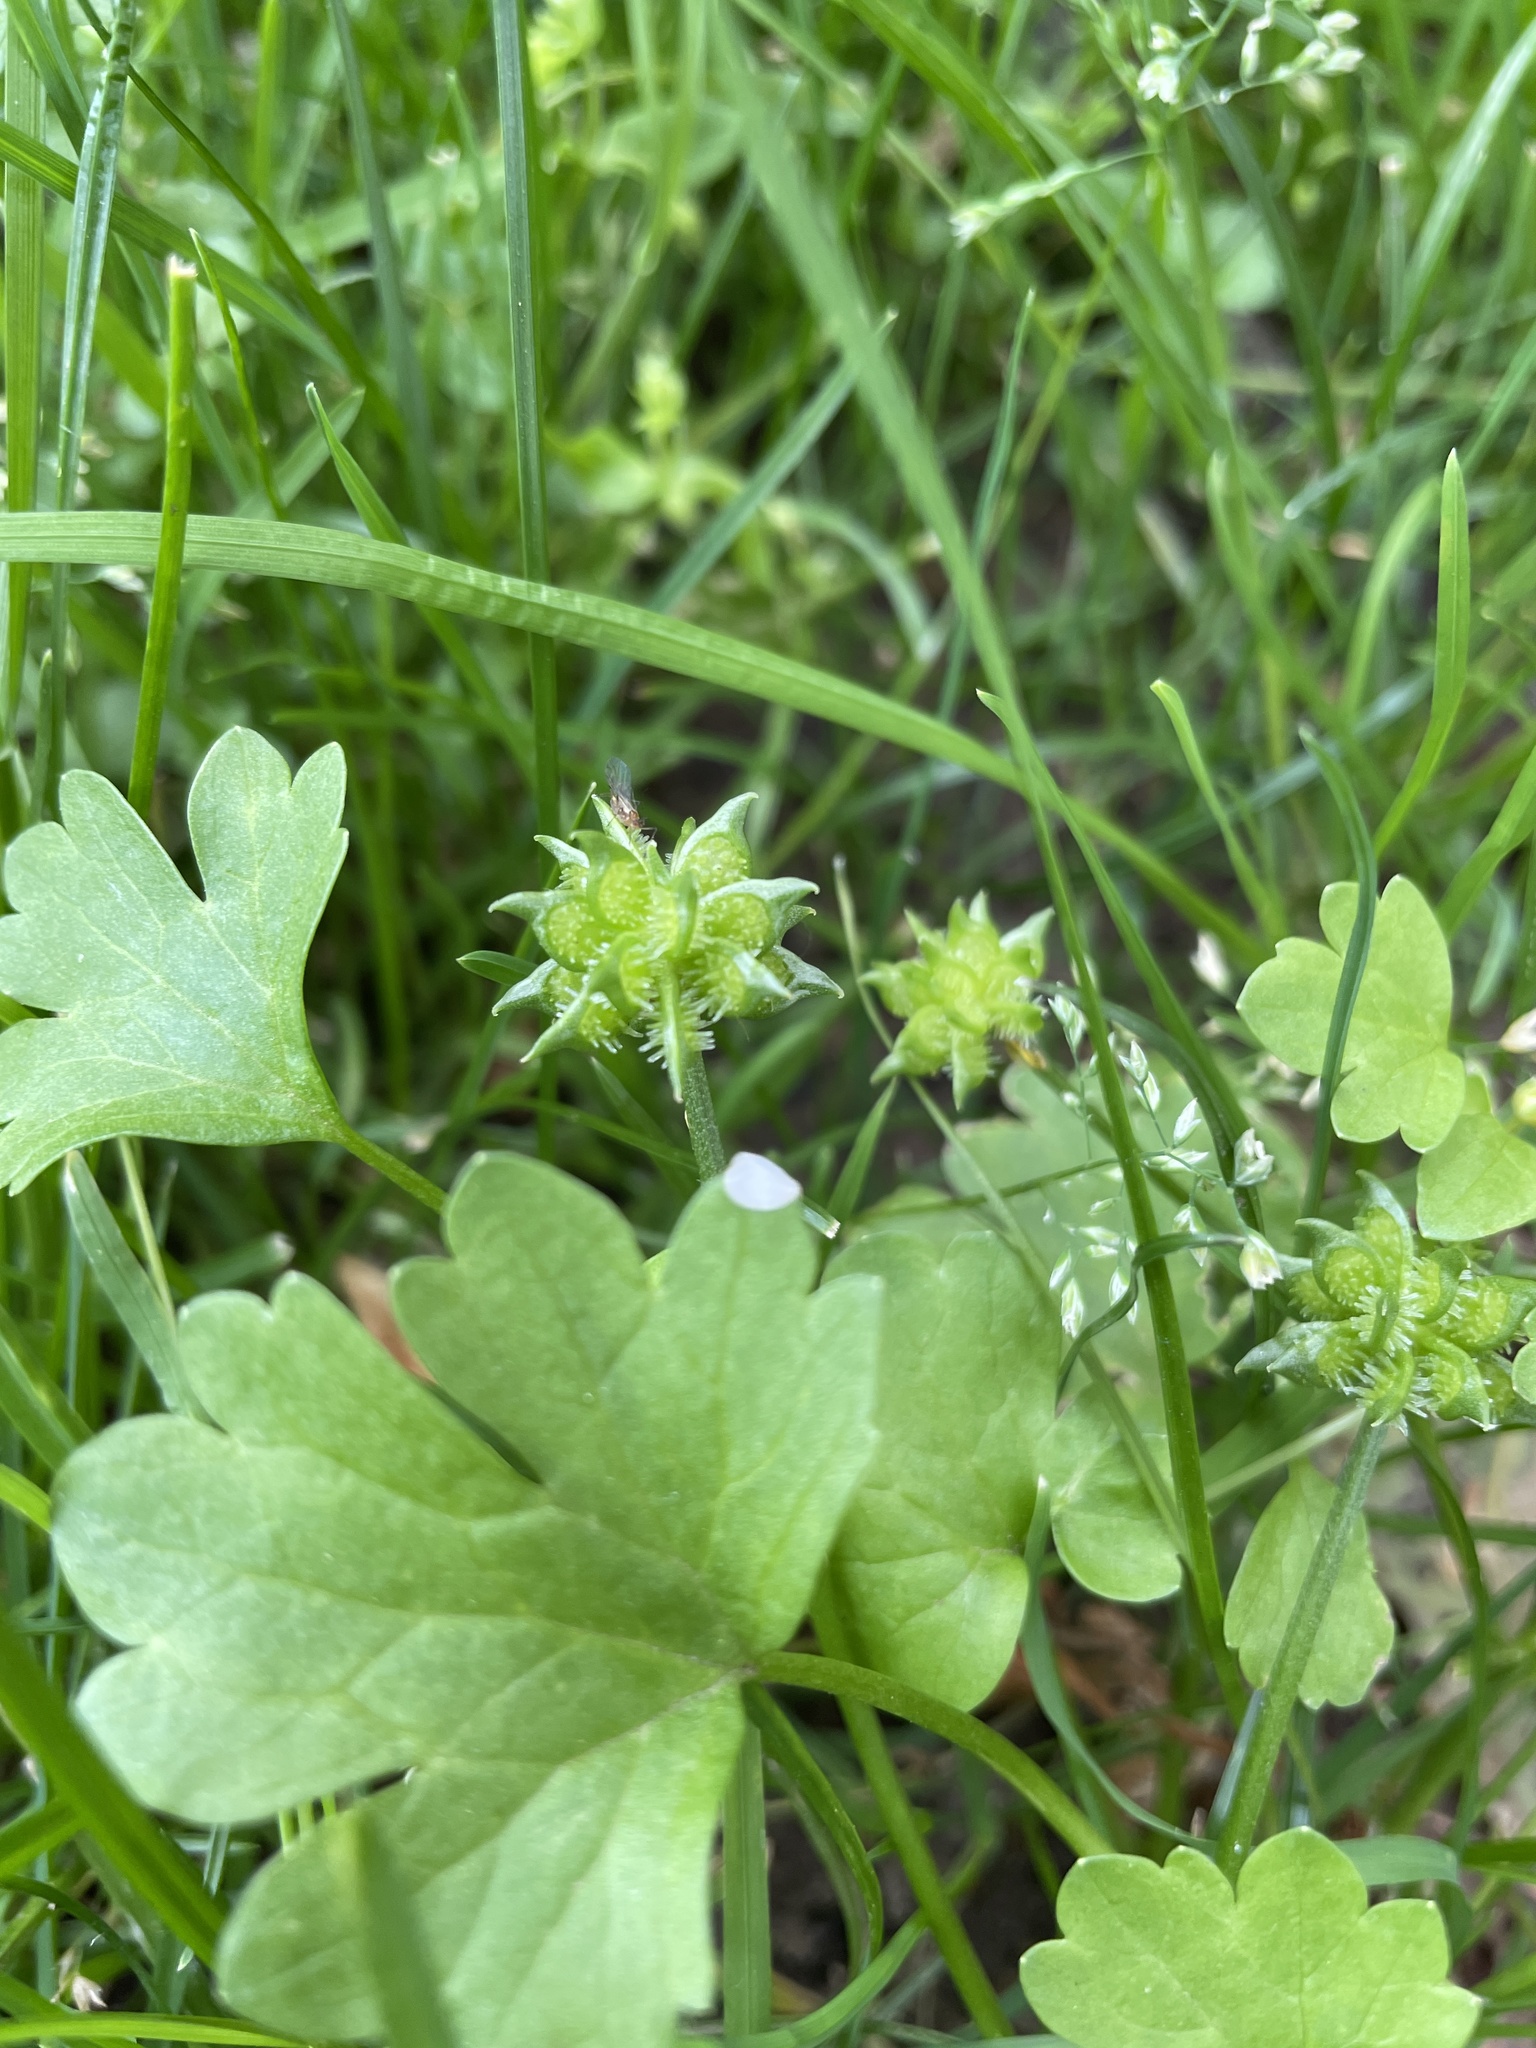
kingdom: Plantae
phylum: Tracheophyta
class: Magnoliopsida
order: Ranunculales
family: Ranunculaceae
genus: Ranunculus
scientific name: Ranunculus muricatus
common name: Rough-fruited buttercup
